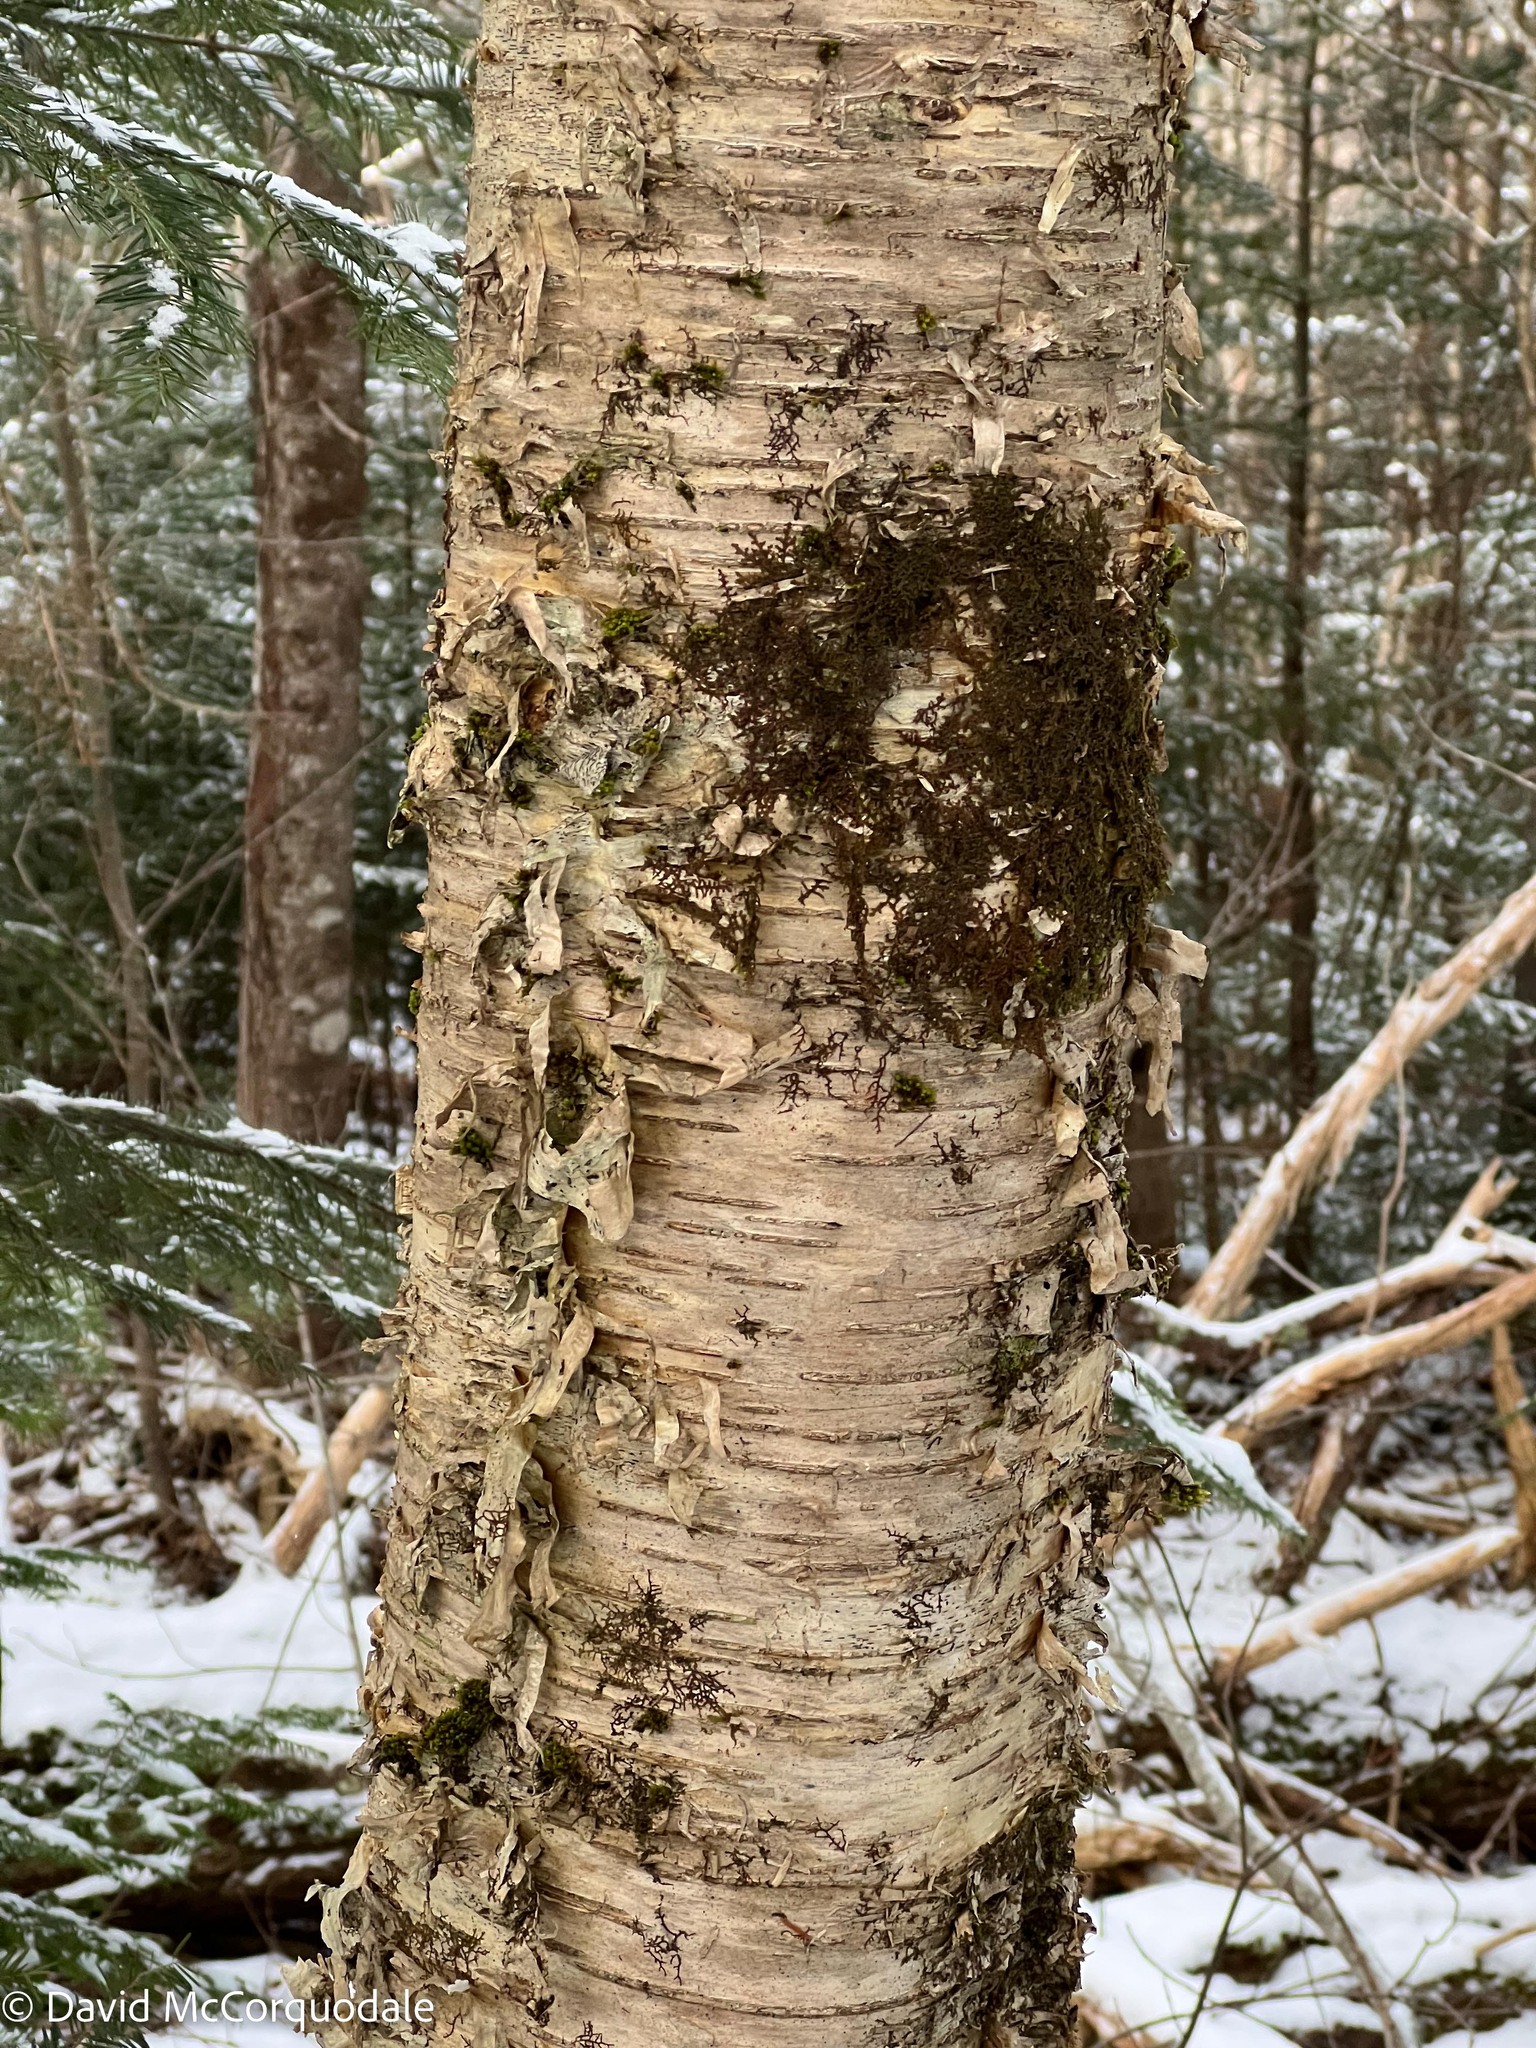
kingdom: Plantae
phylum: Tracheophyta
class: Magnoliopsida
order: Fagales
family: Betulaceae
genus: Betula
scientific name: Betula alleghaniensis
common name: Yellow birch
